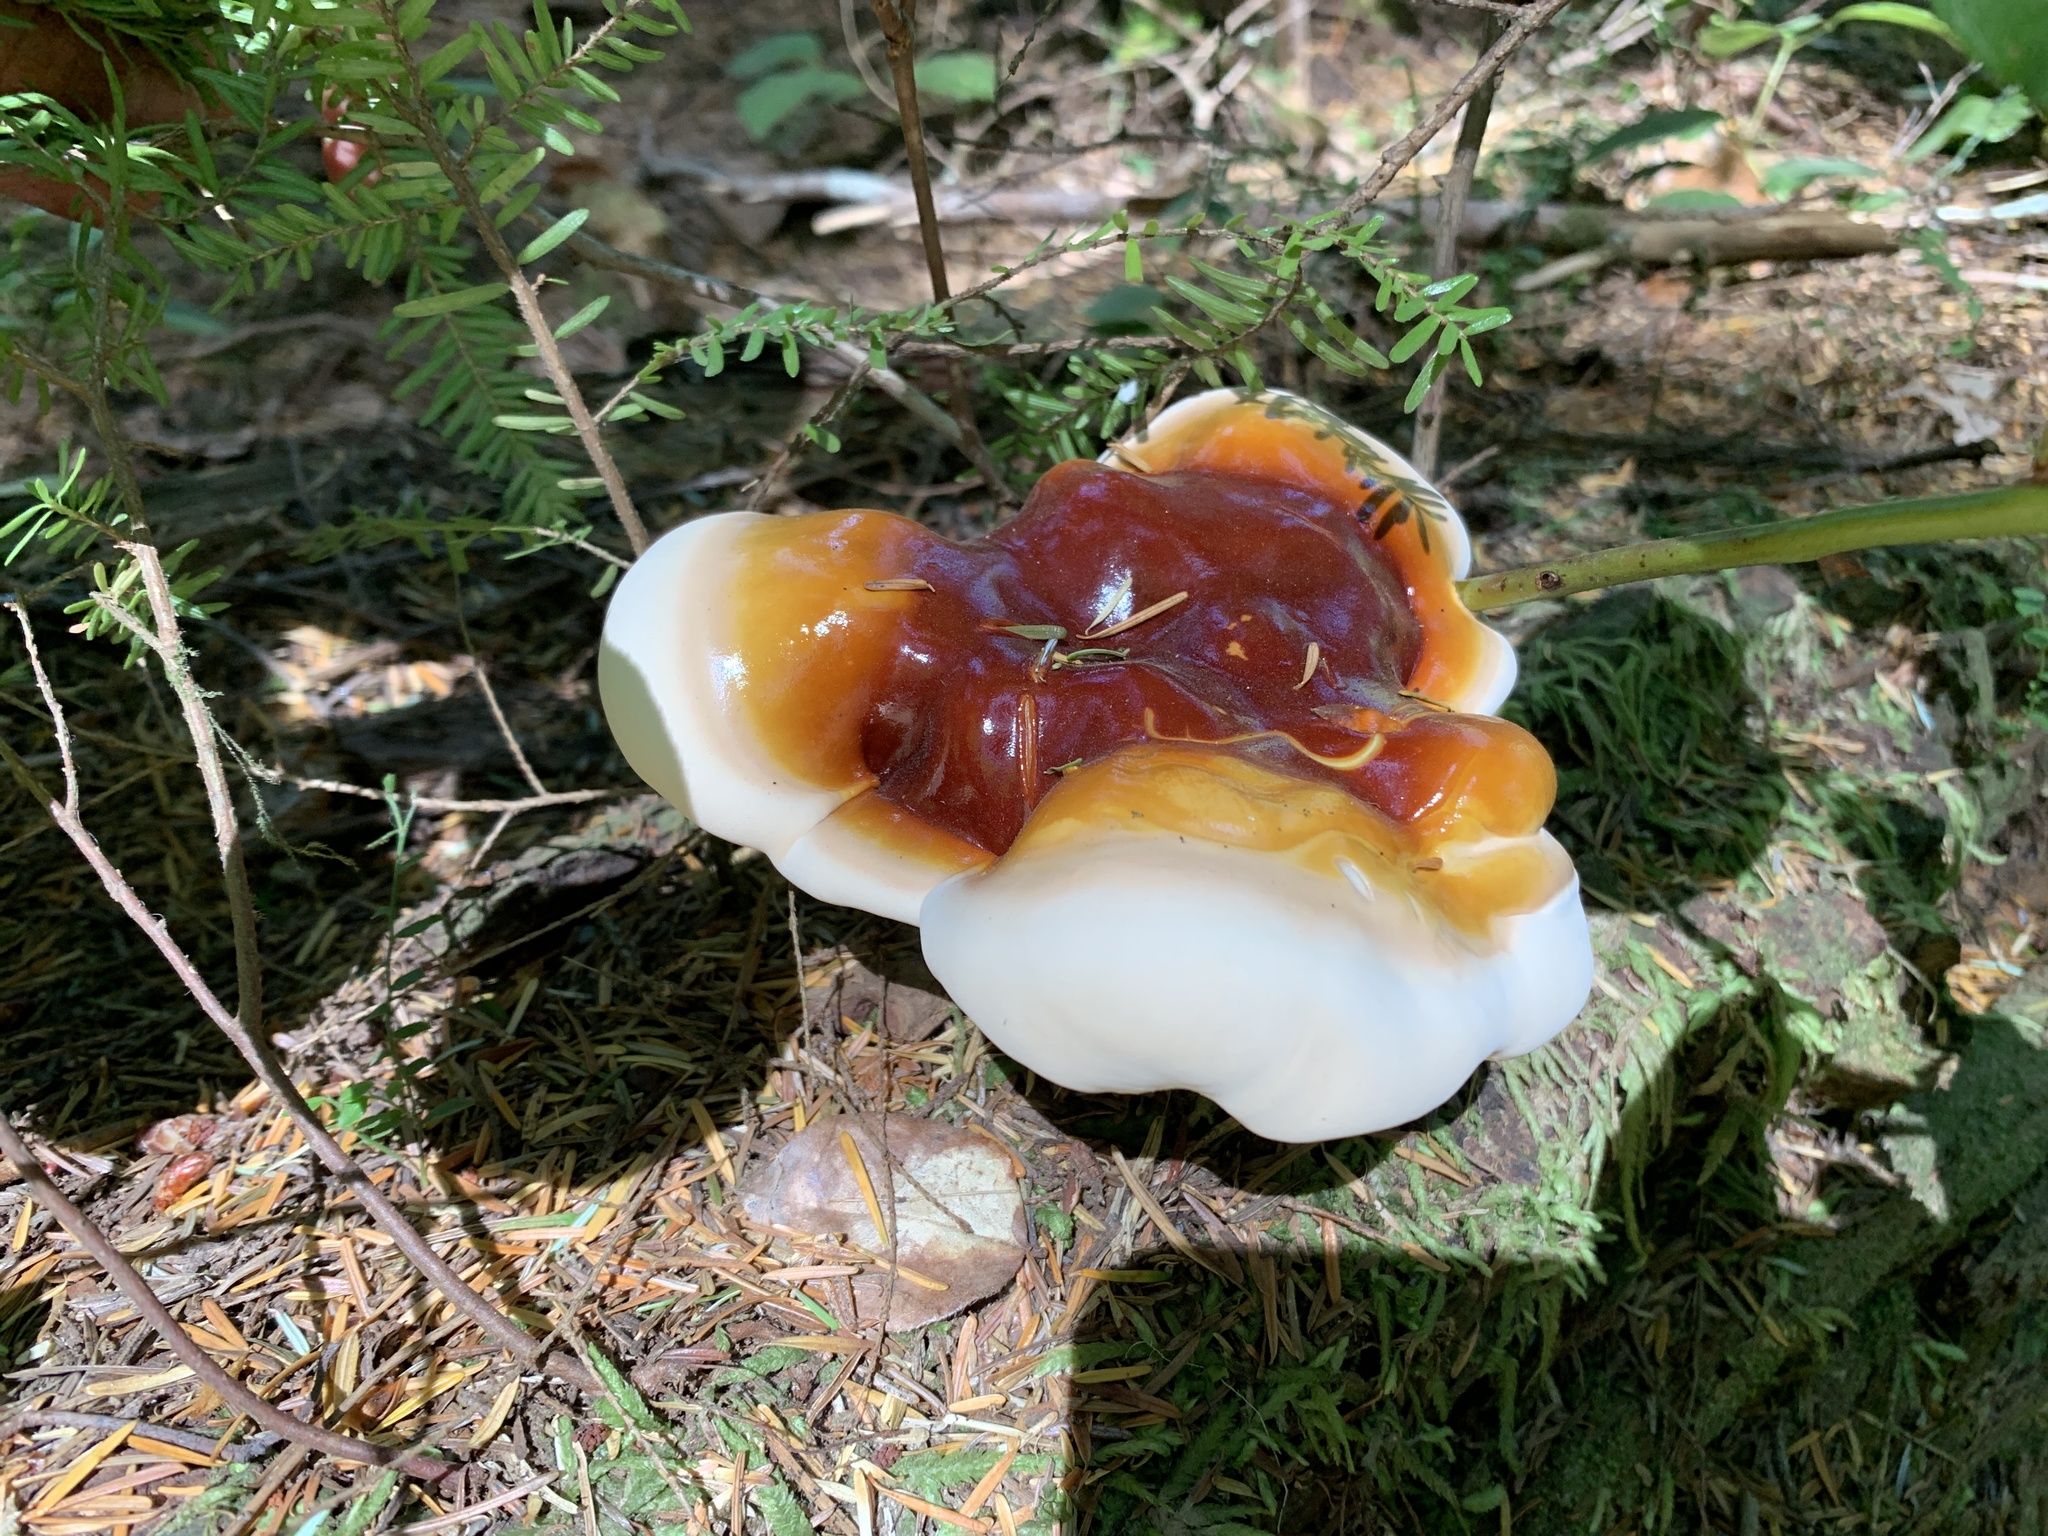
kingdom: Fungi
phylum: Basidiomycota
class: Agaricomycetes
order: Polyporales
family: Polyporaceae
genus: Ganoderma
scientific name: Ganoderma oregonense
